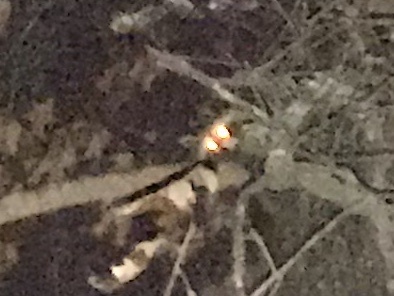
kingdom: Animalia
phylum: Chordata
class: Mammalia
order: Carnivora
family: Procyonidae
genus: Procyon
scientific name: Procyon lotor
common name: Raccoon
